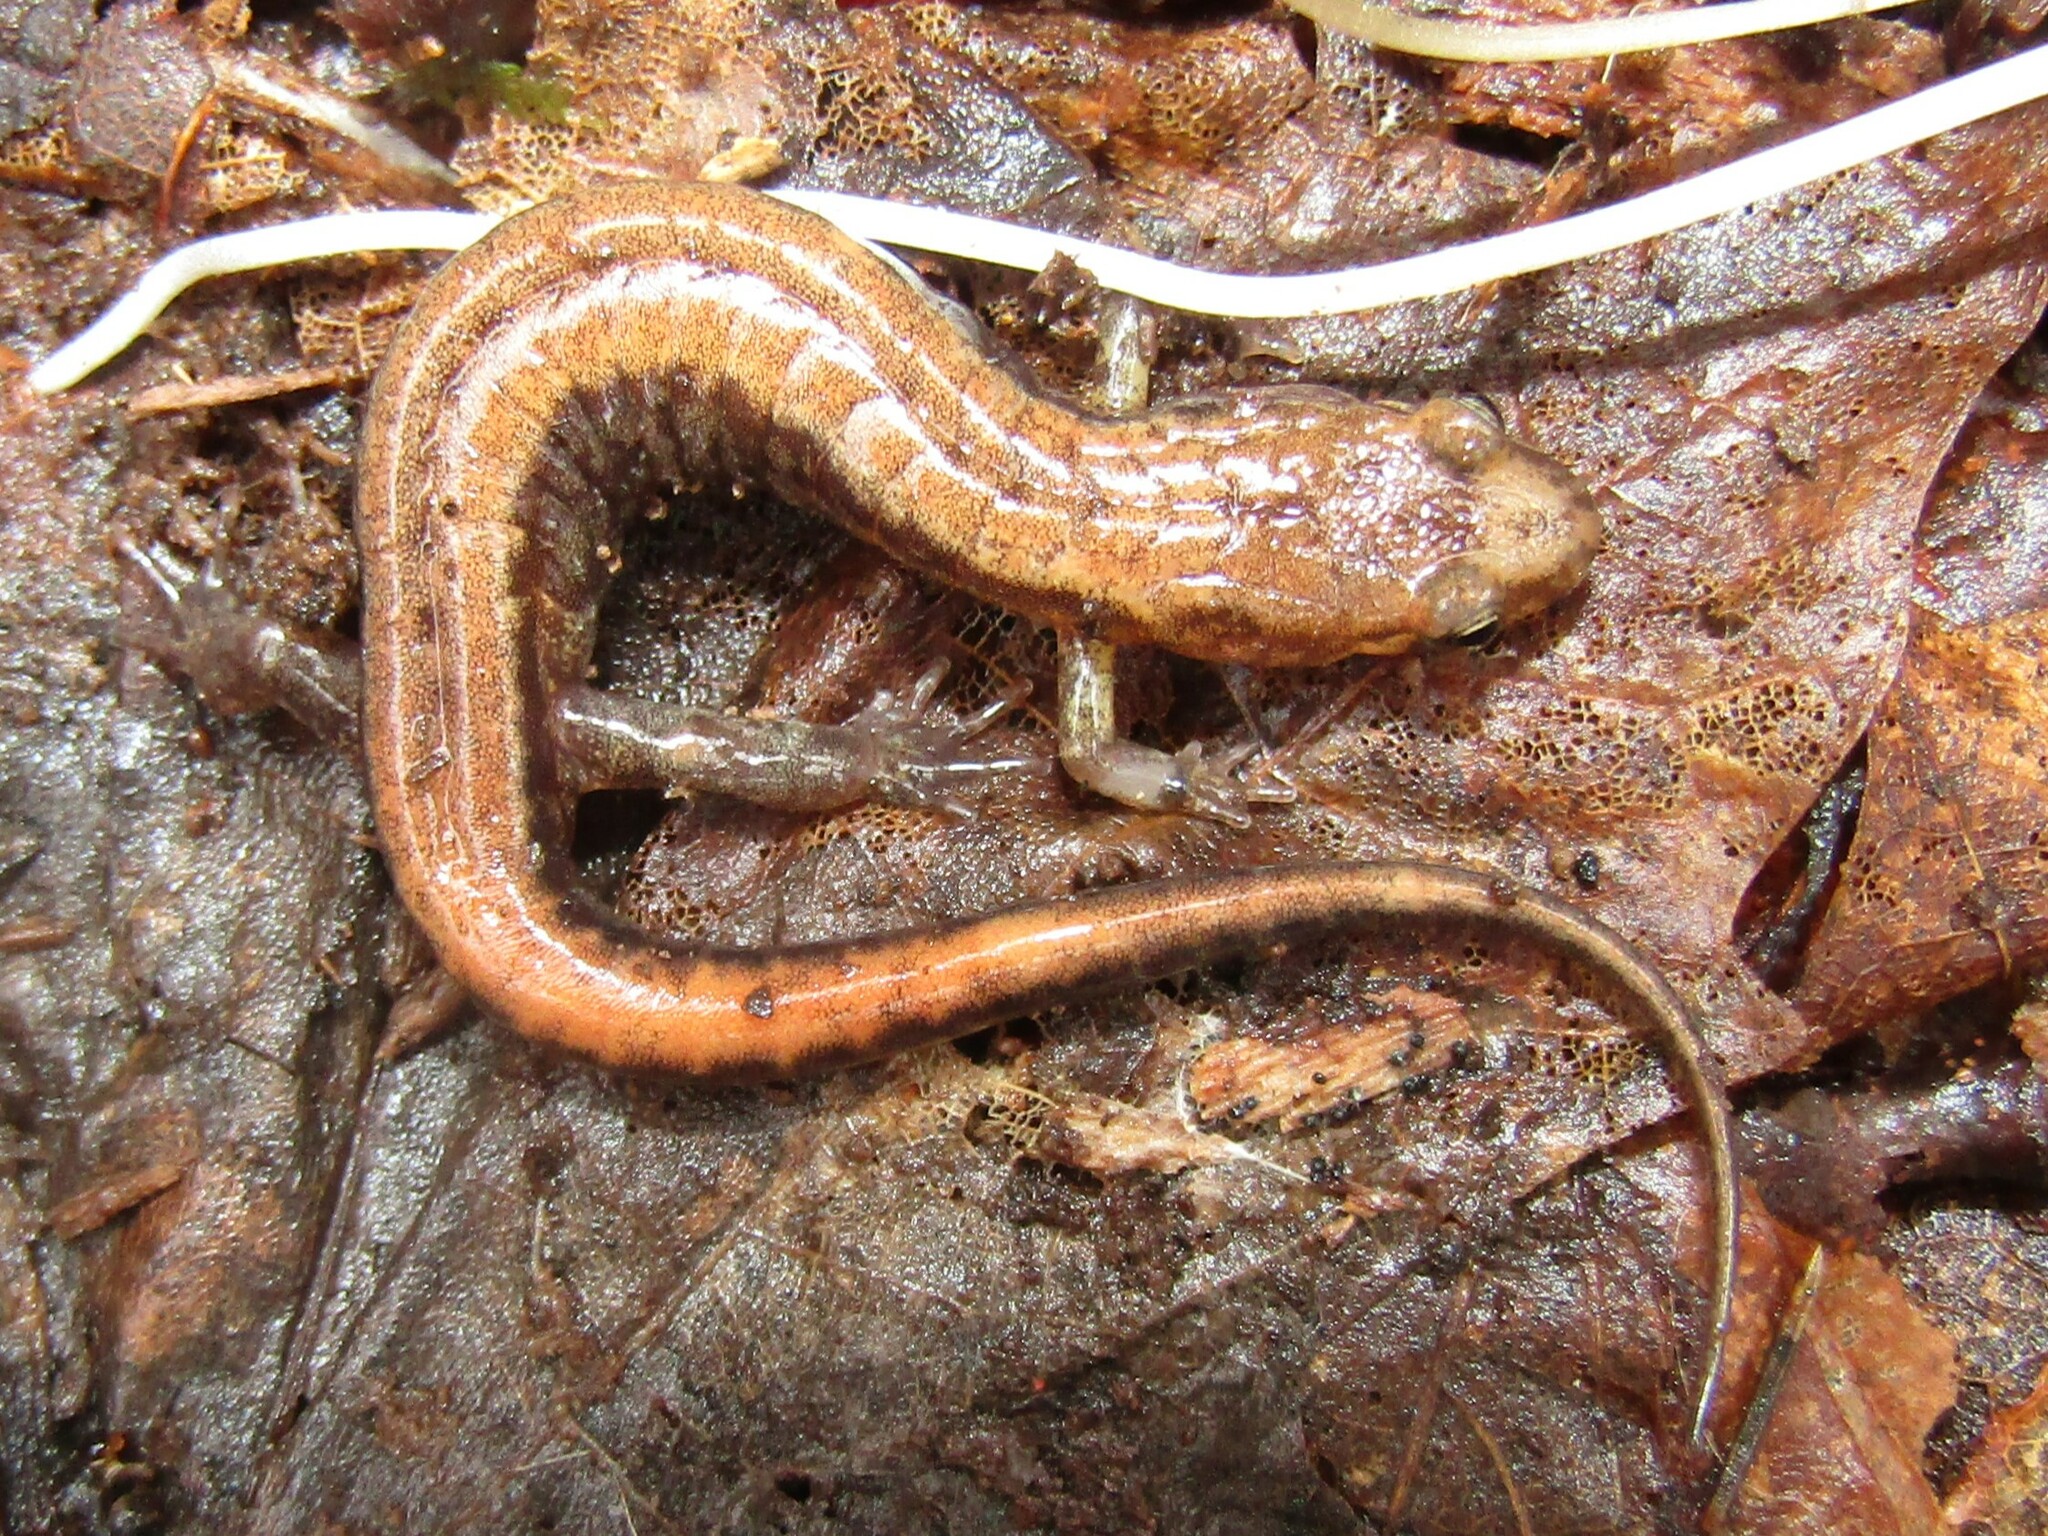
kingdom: Animalia
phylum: Chordata
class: Amphibia
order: Caudata
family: Plethodontidae
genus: Desmognathus
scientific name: Desmognathus ochrophaeus
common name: Allegheny mountain dusky salamander
